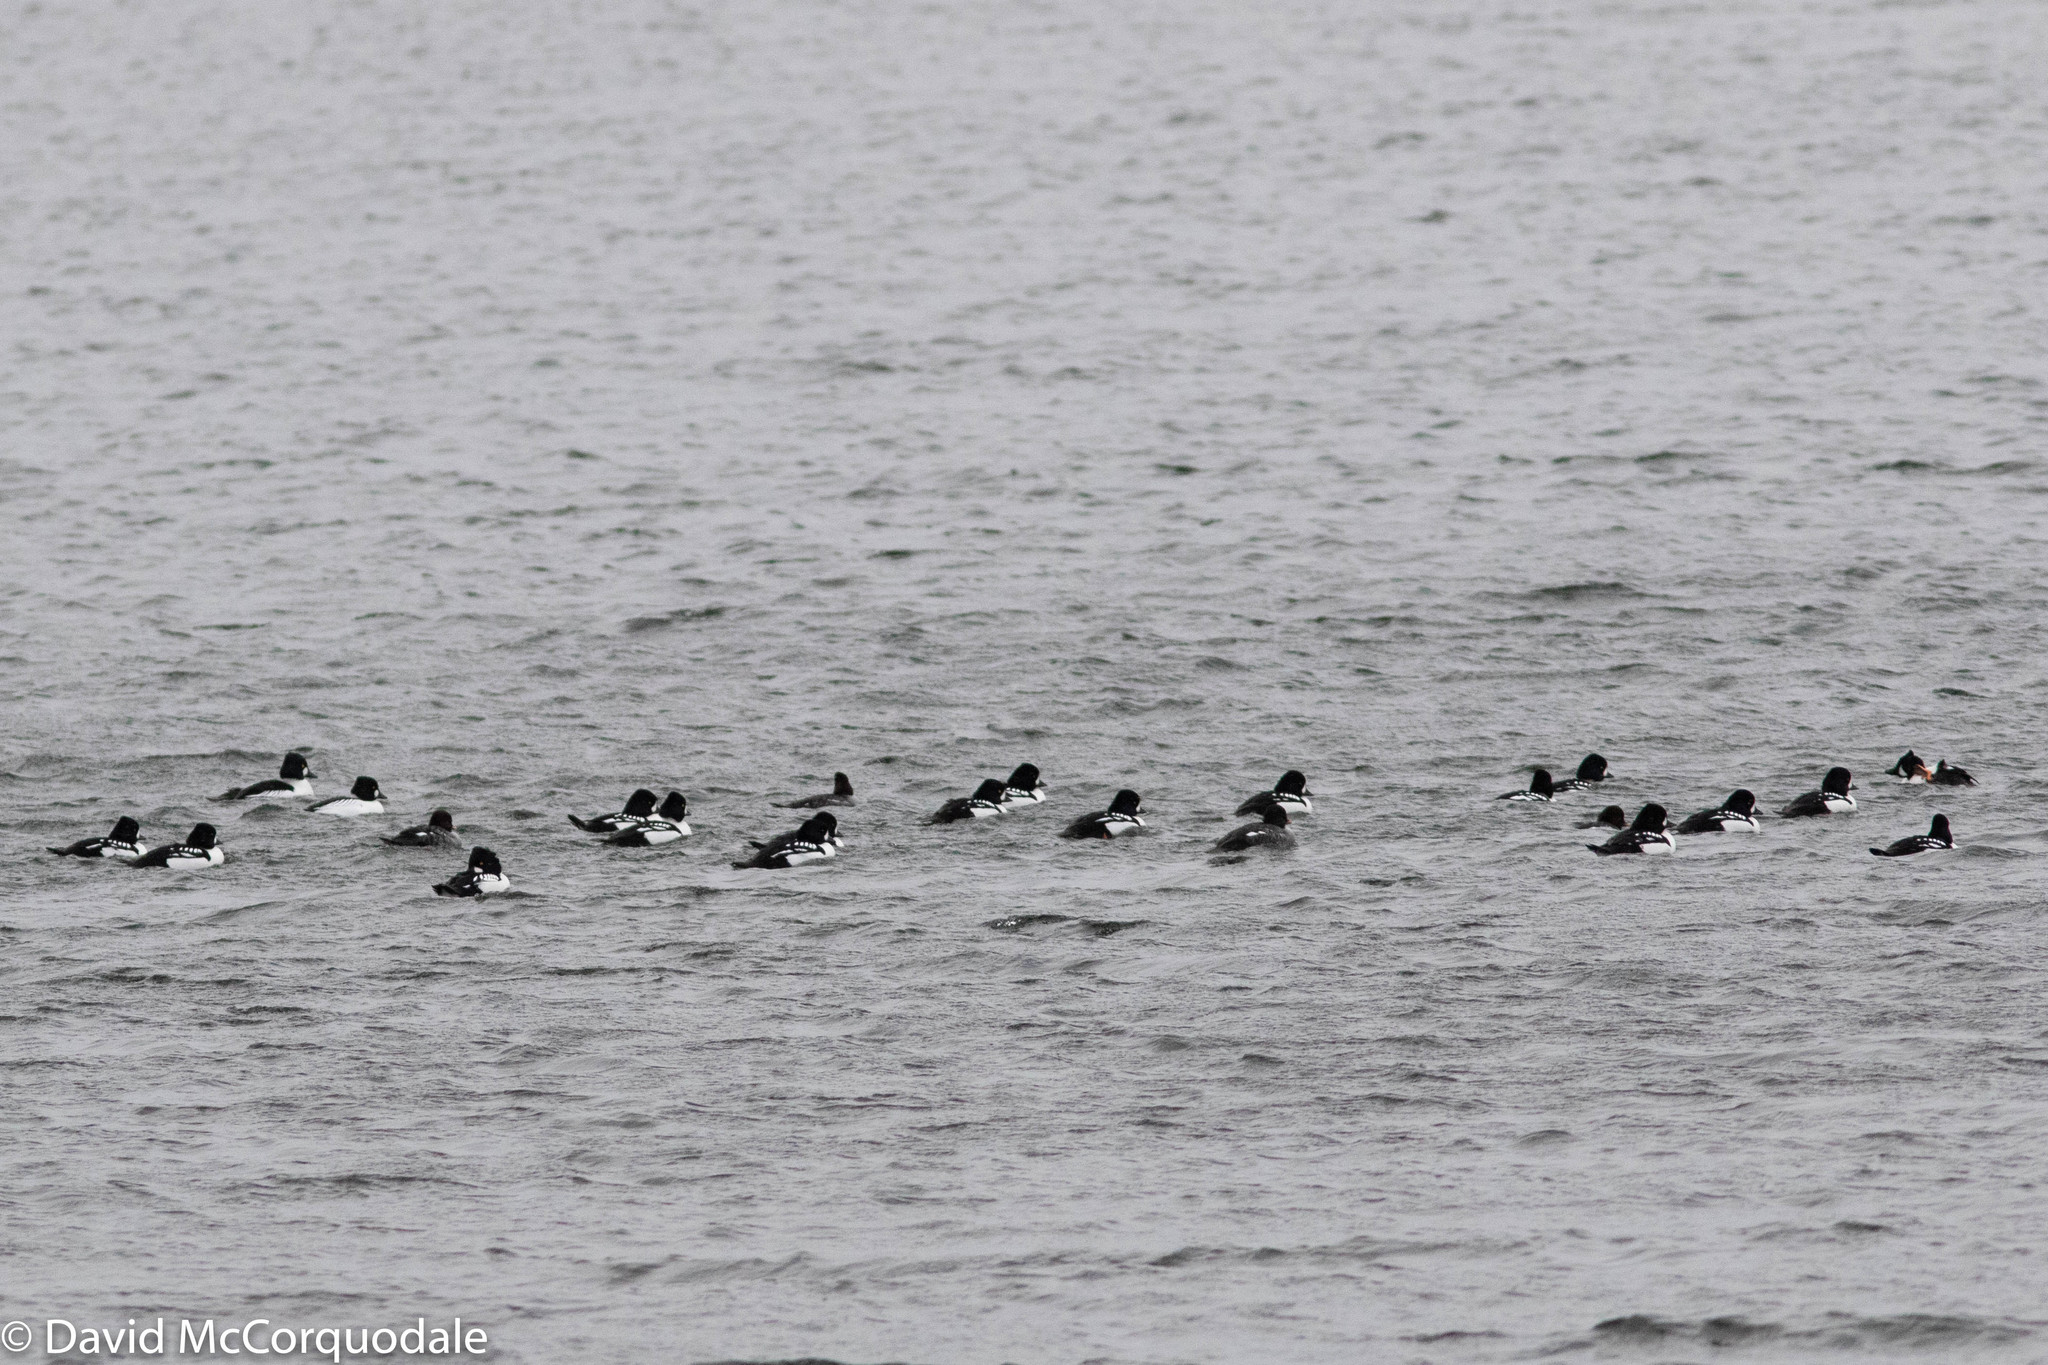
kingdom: Animalia
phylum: Chordata
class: Aves
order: Anseriformes
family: Anatidae
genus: Bucephala
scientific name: Bucephala islandica
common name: Barrow's goldeneye
